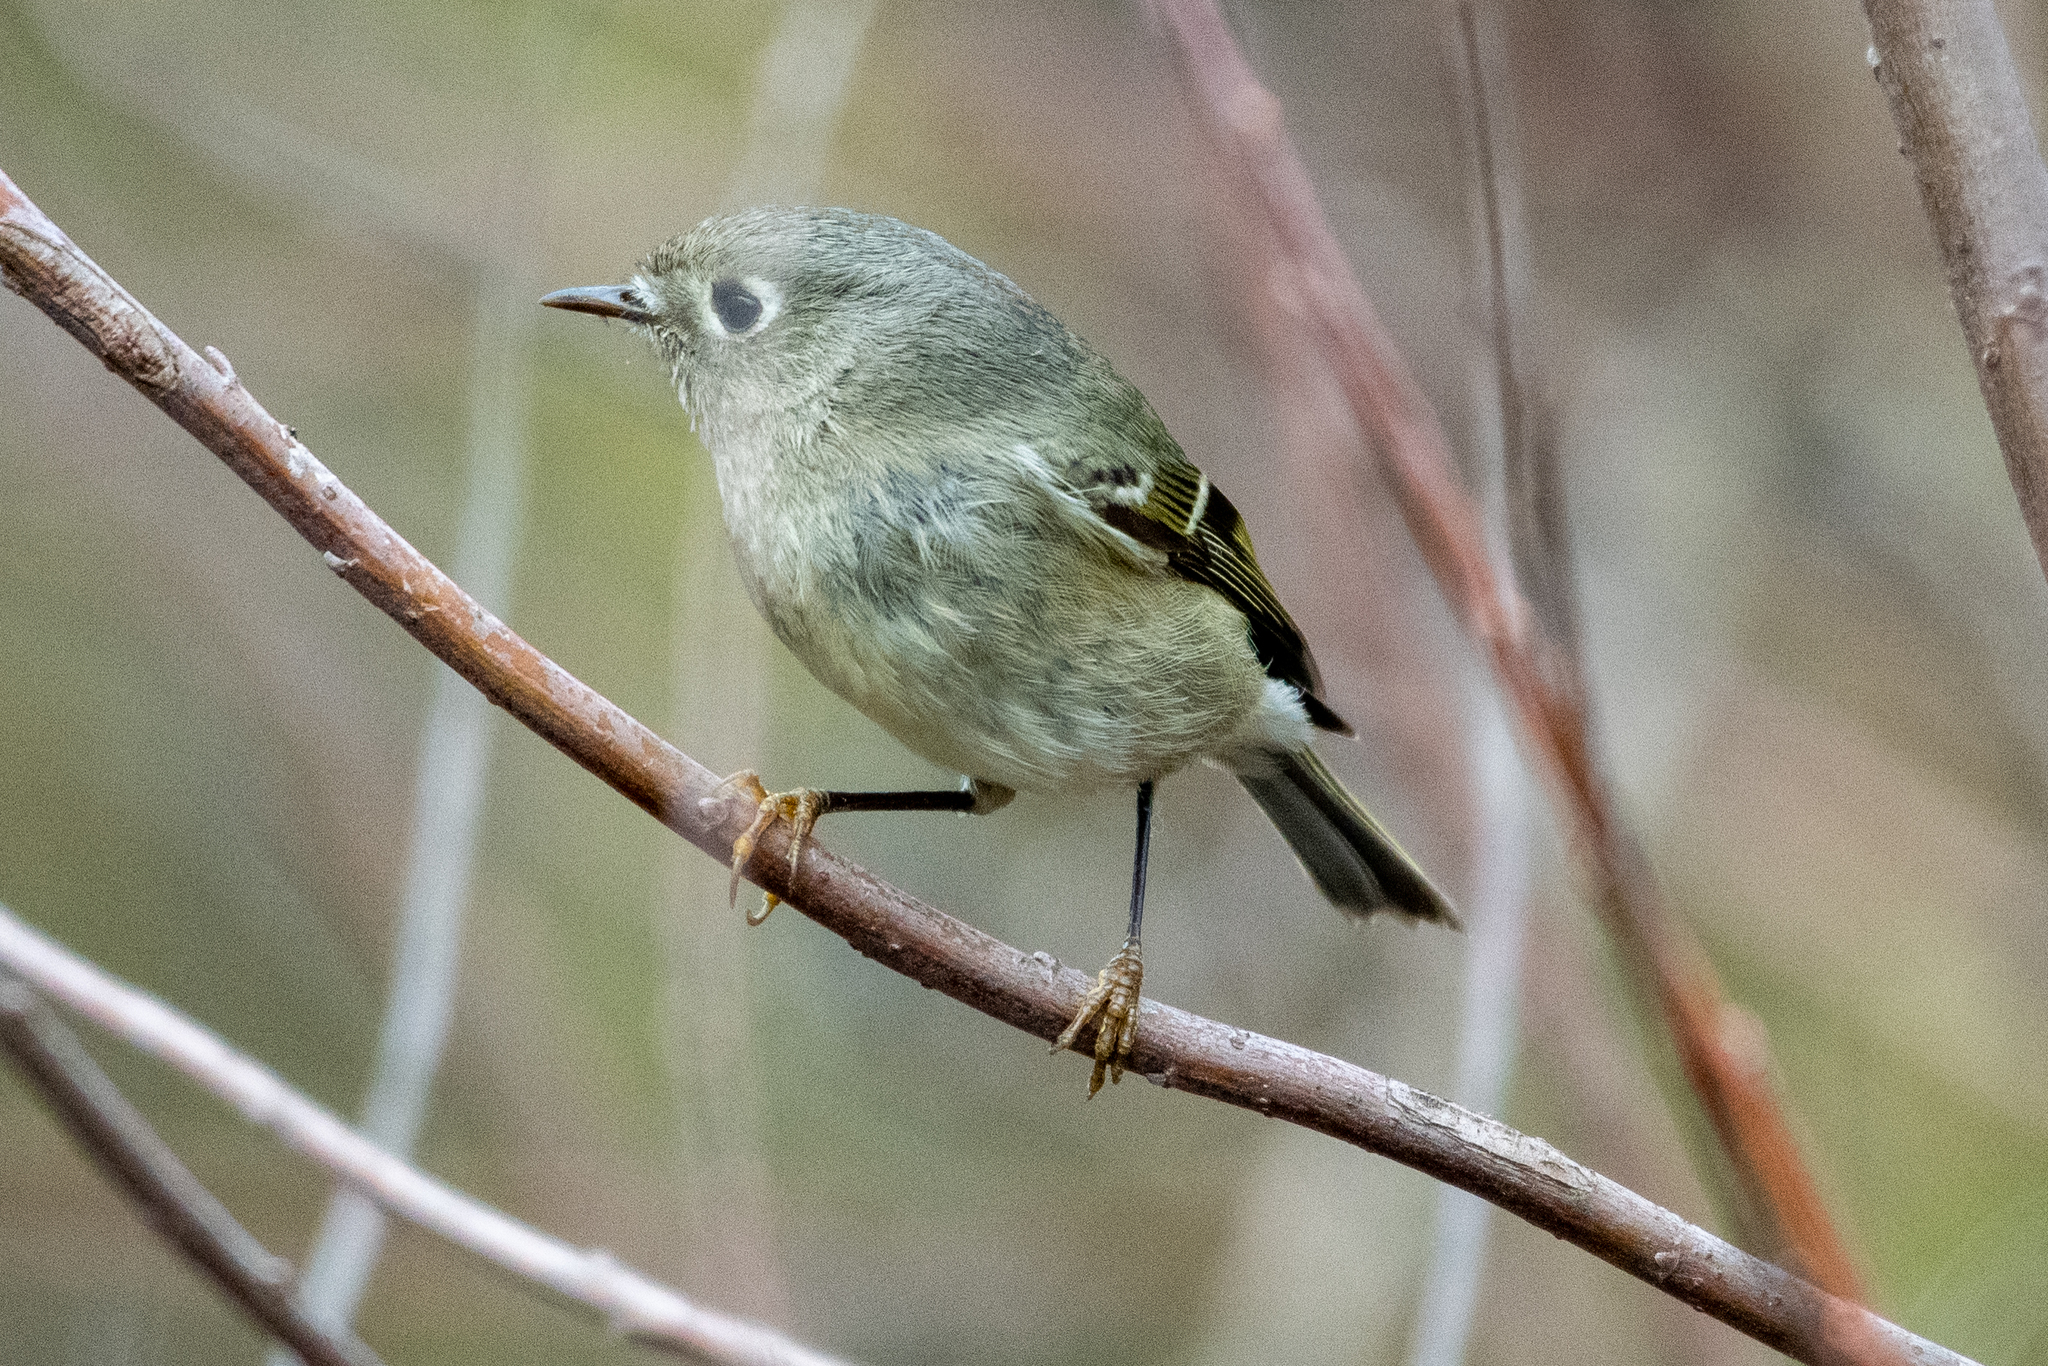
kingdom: Animalia
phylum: Chordata
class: Aves
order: Passeriformes
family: Regulidae
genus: Regulus
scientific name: Regulus calendula
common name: Ruby-crowned kinglet
